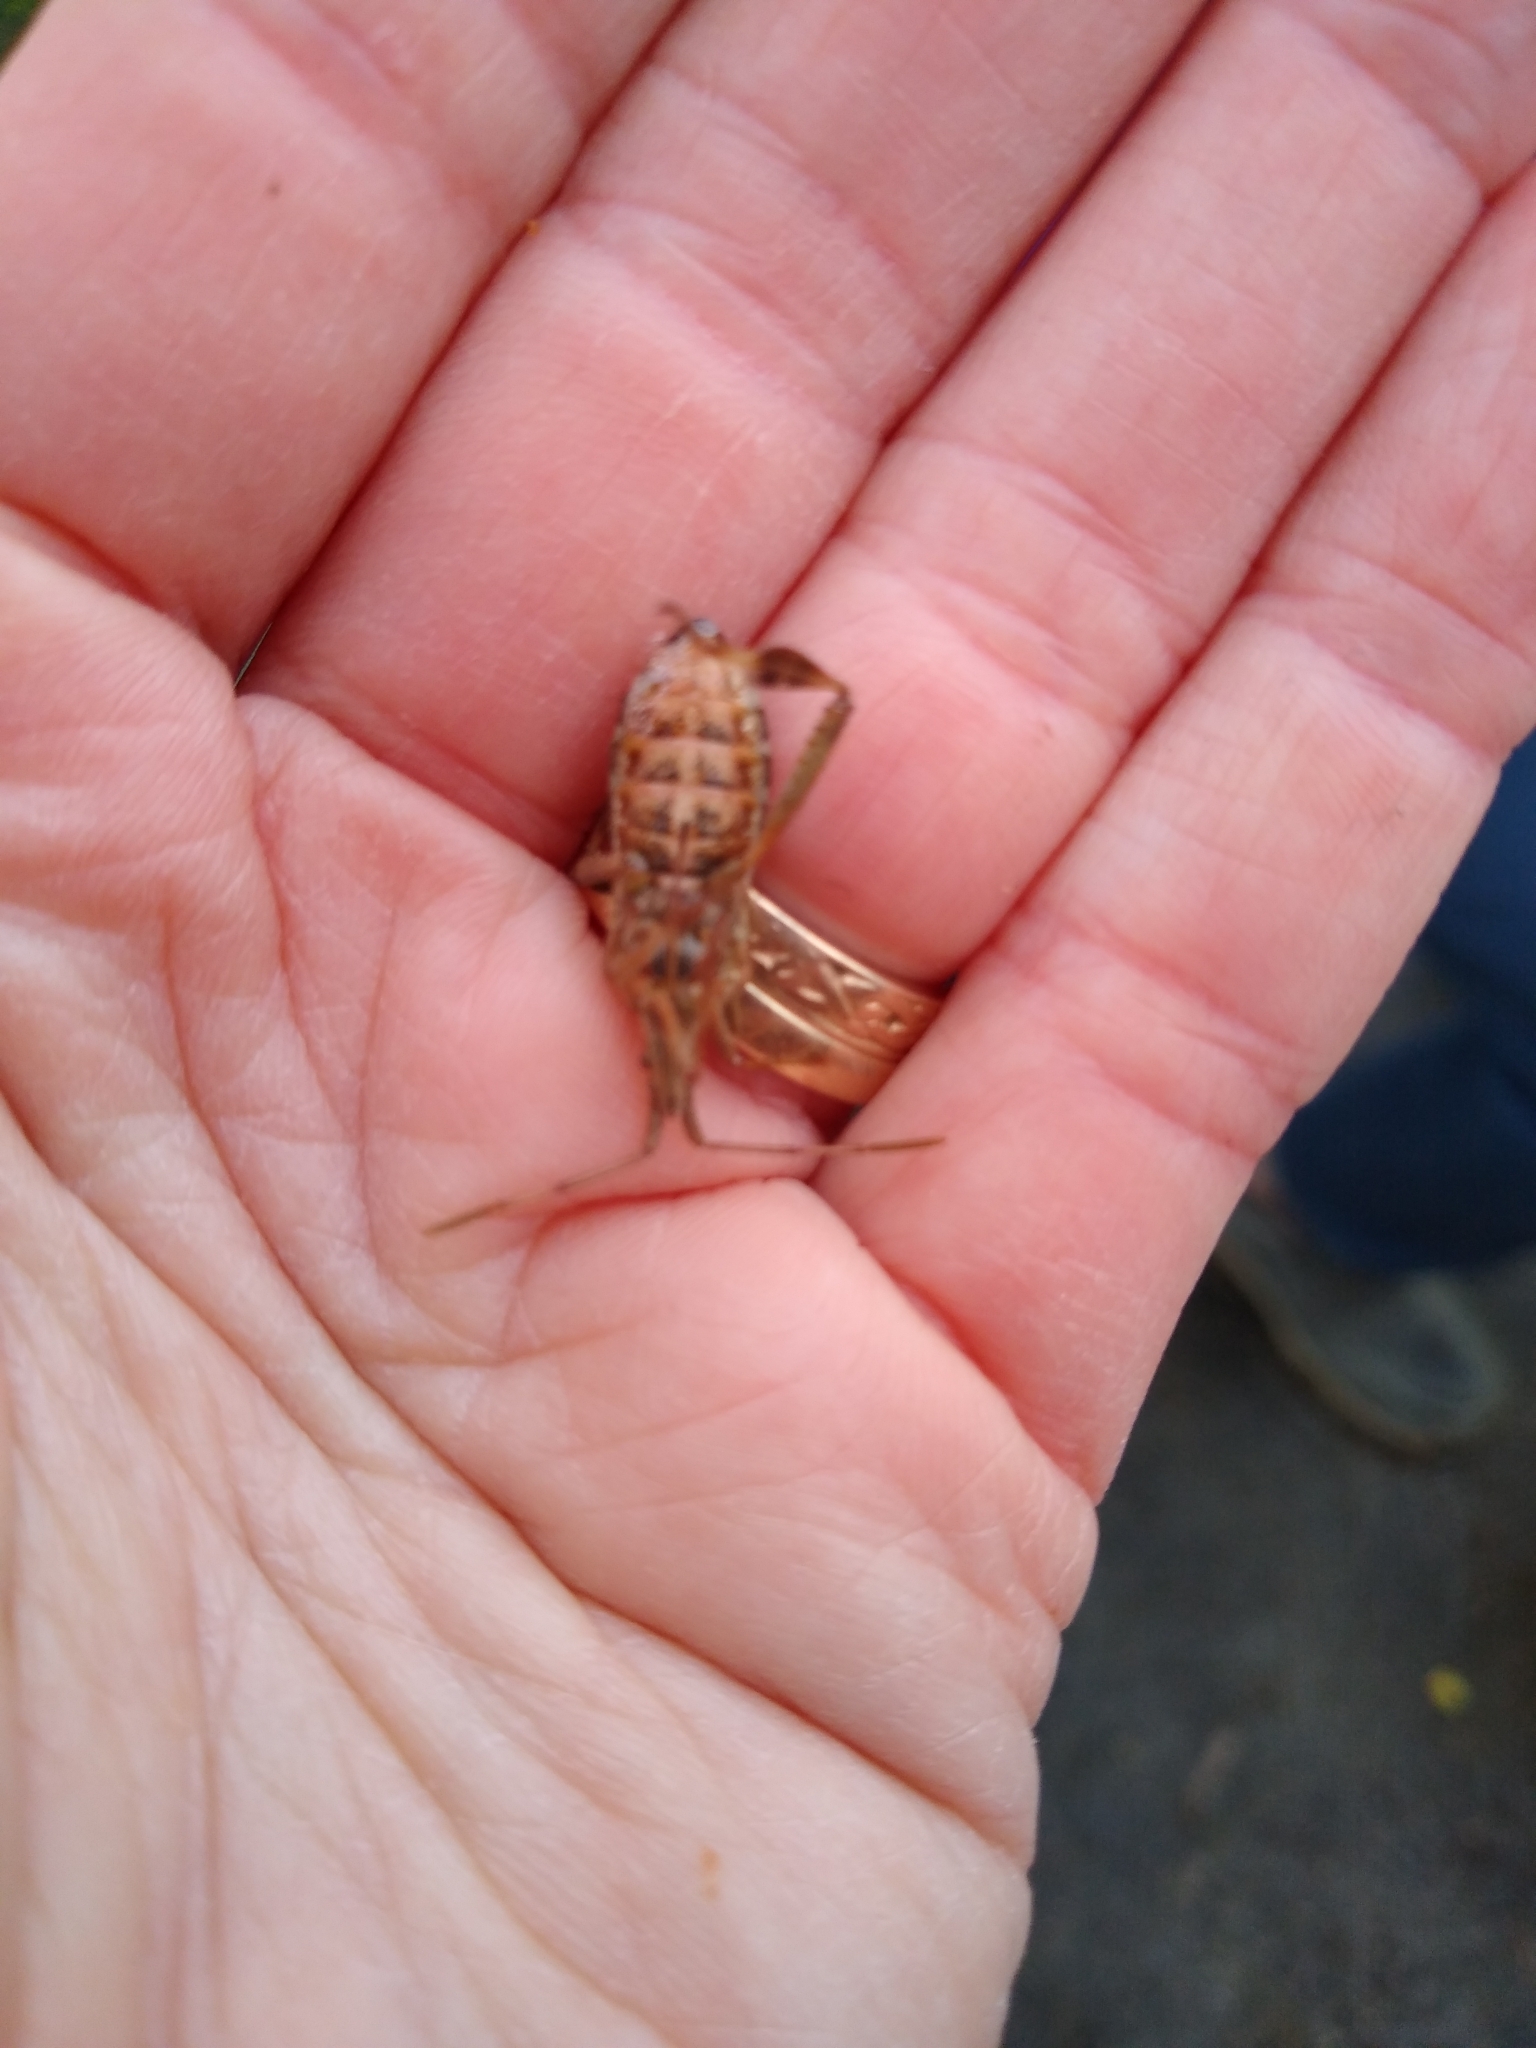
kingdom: Animalia
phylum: Arthropoda
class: Insecta
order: Hemiptera
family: Coreidae
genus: Leptoglossus
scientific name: Leptoglossus occidentalis
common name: Western conifer-seed bug
